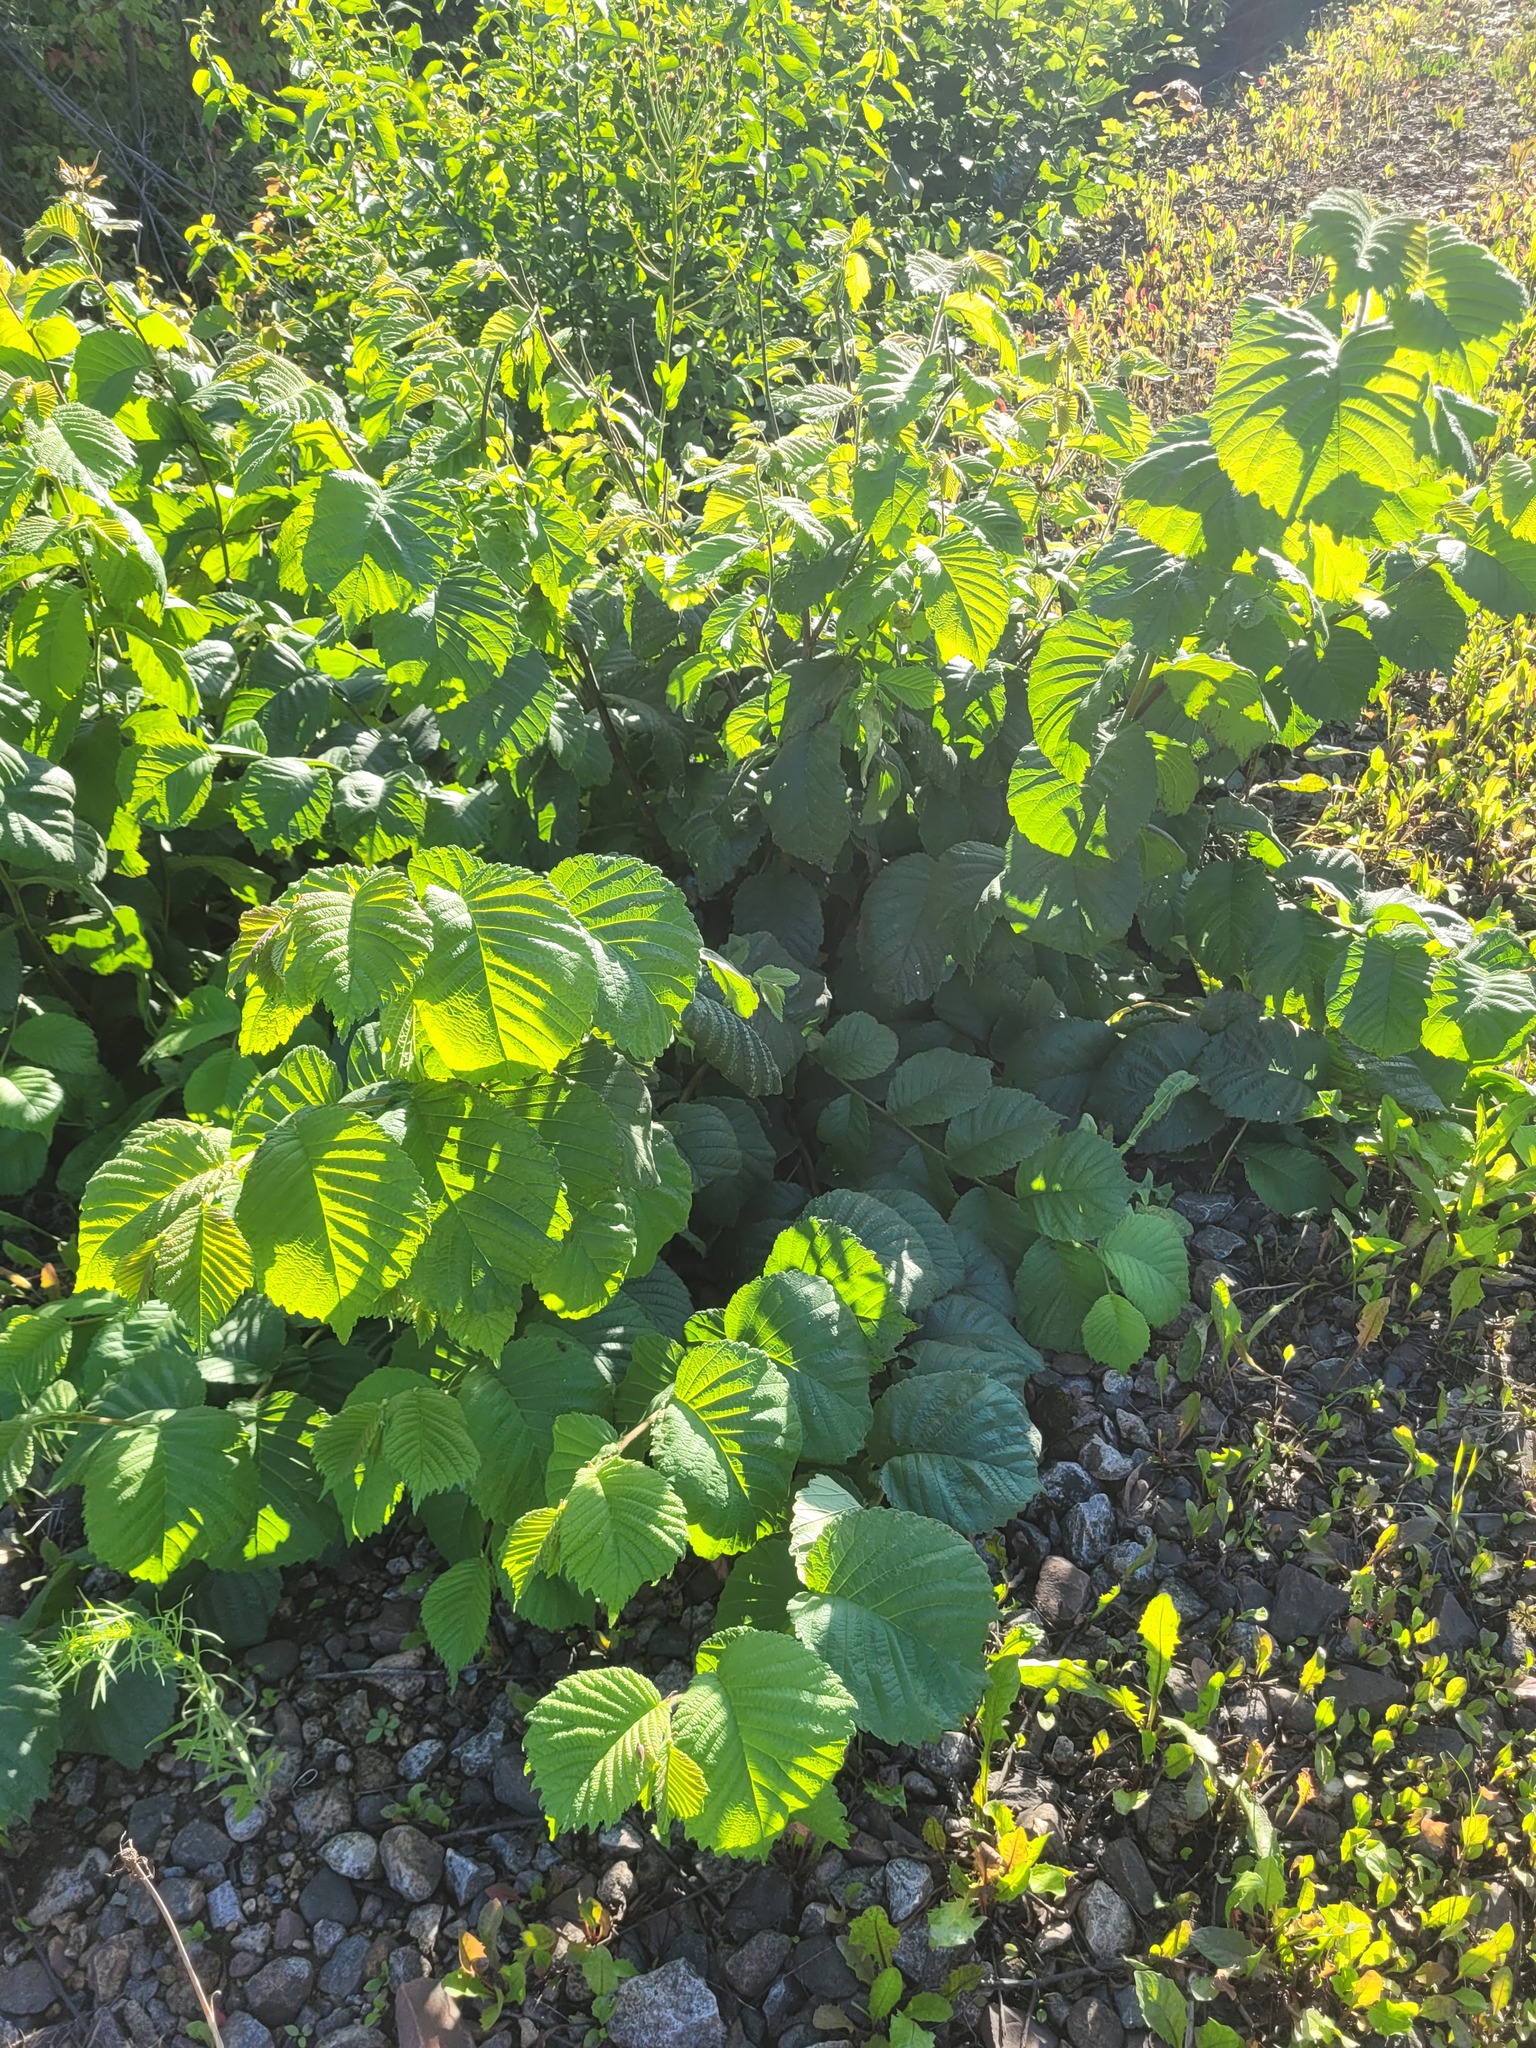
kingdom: Plantae
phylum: Tracheophyta
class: Magnoliopsida
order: Rosales
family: Ulmaceae
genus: Ulmus
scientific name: Ulmus glabra
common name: Wych elm
